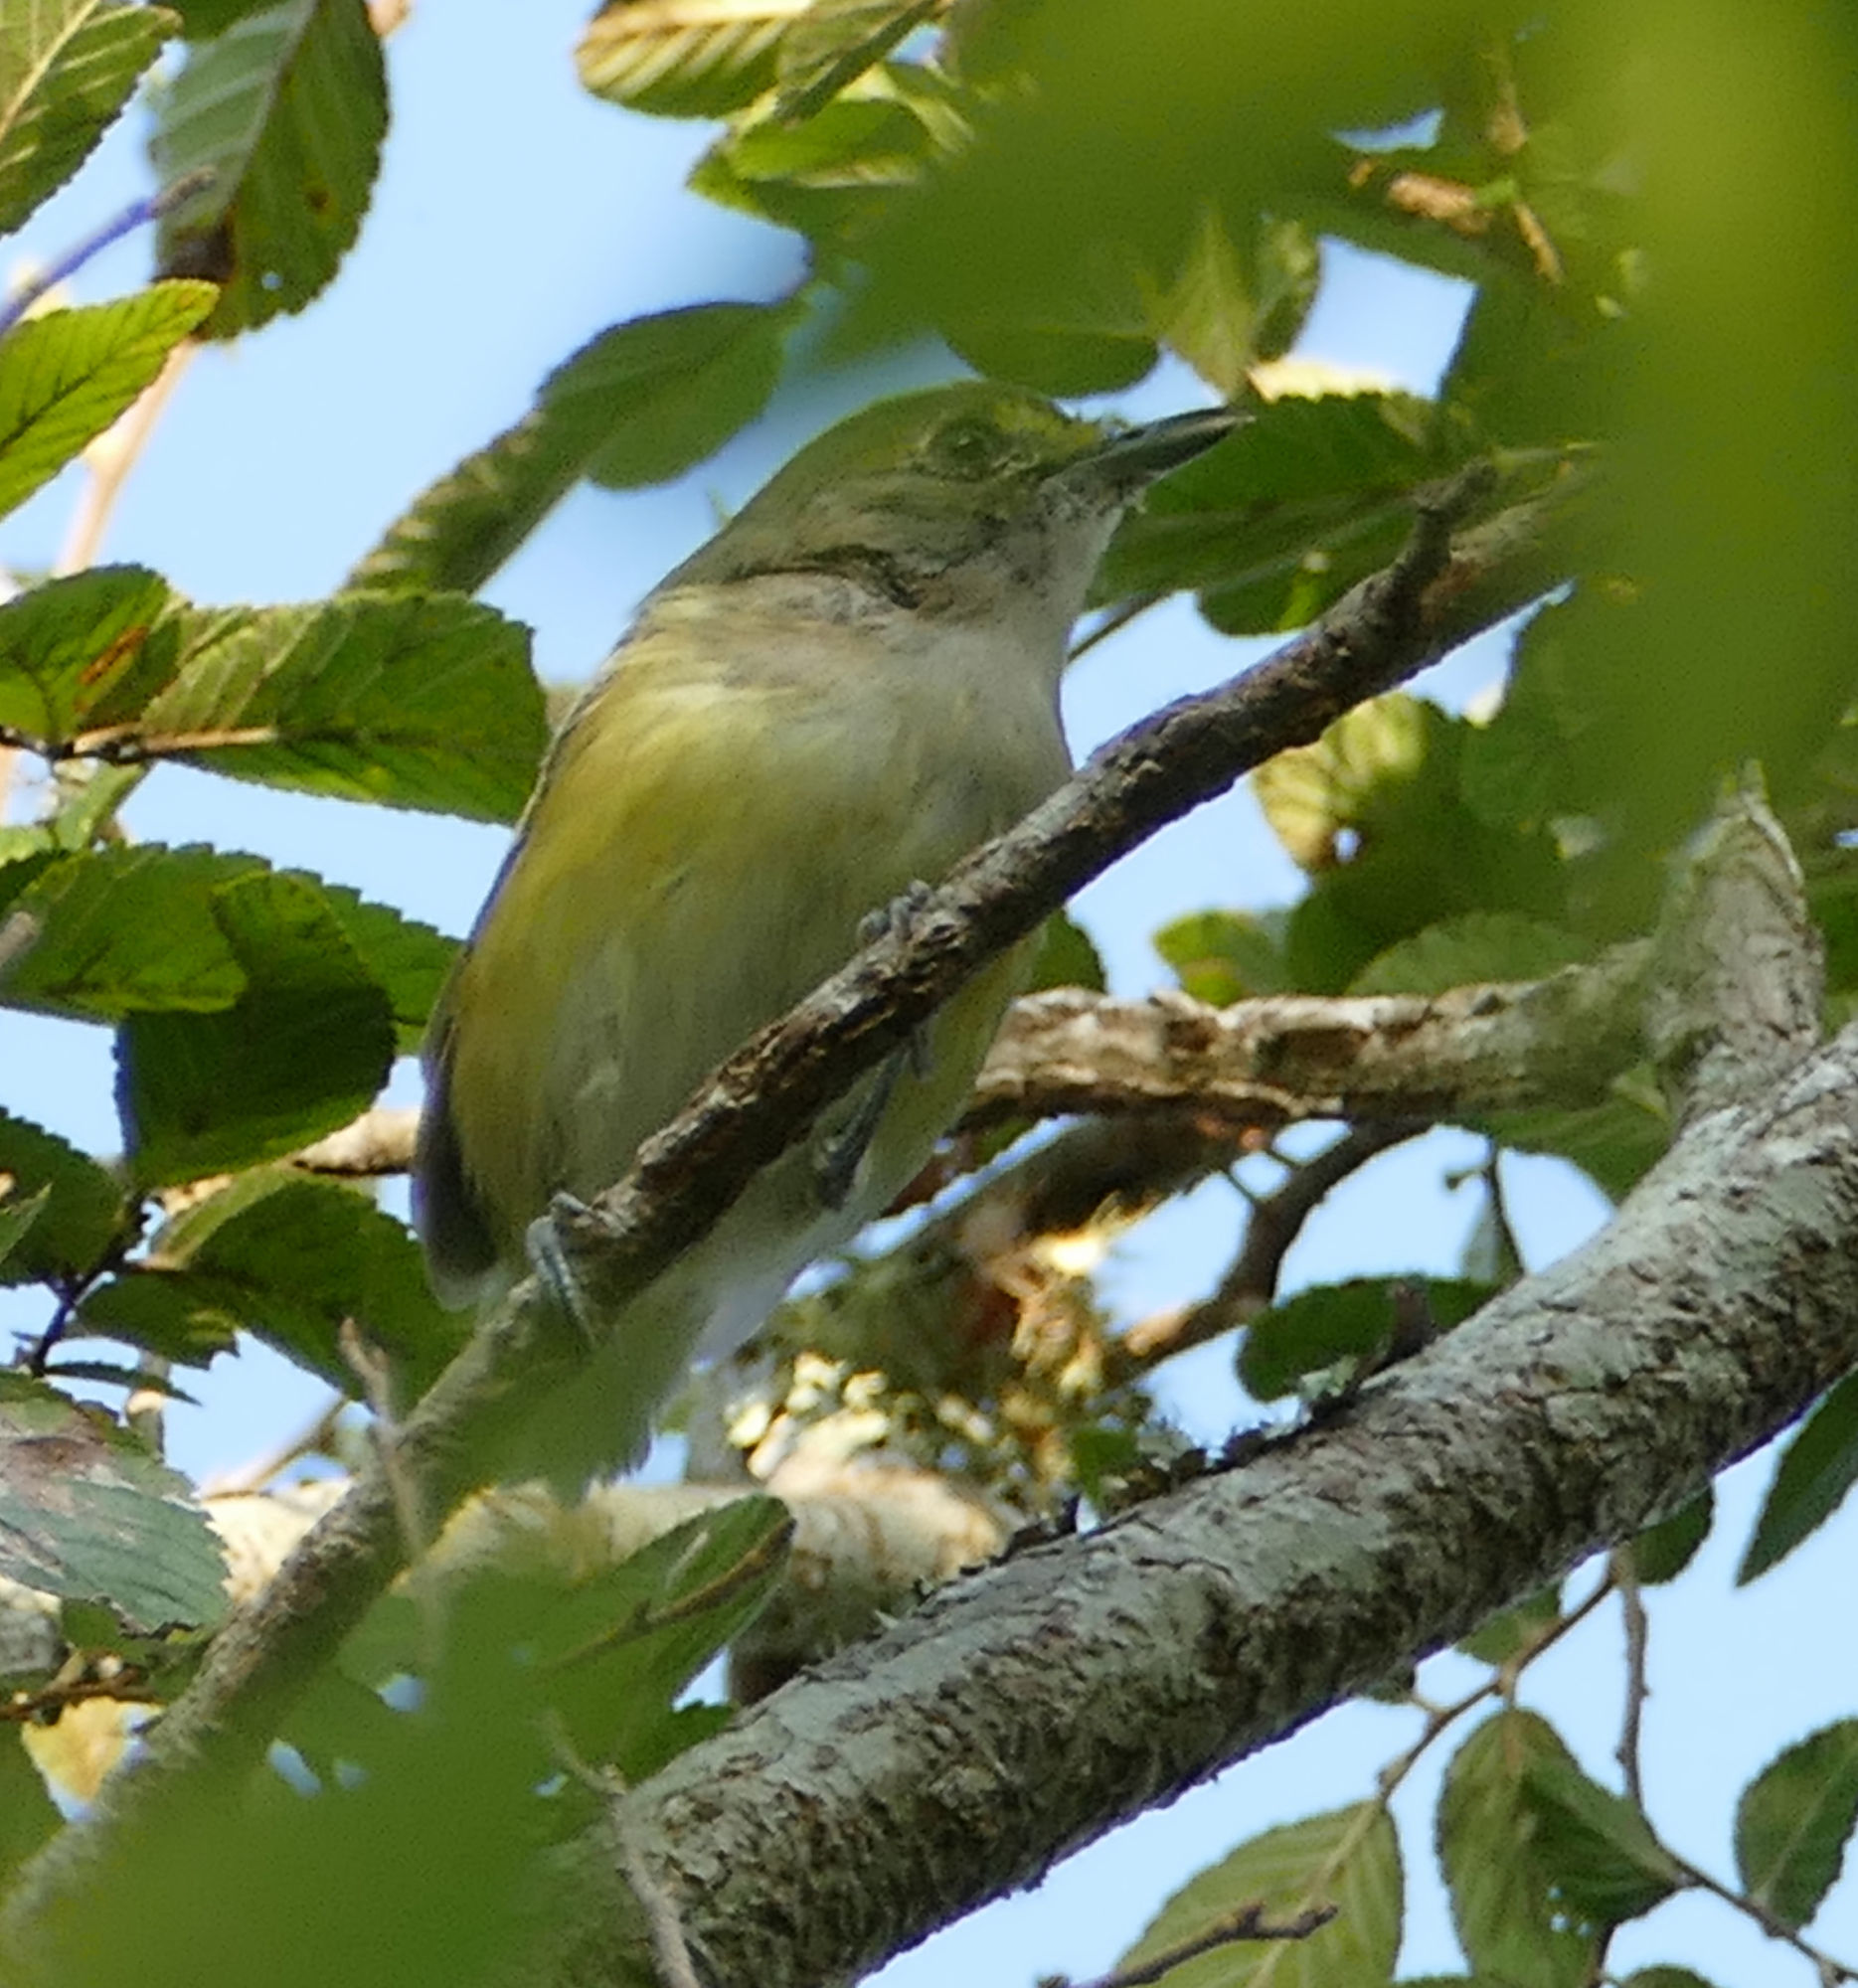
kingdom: Animalia
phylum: Chordata
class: Aves
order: Passeriformes
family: Vireonidae
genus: Vireo
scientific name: Vireo griseus
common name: White-eyed vireo
